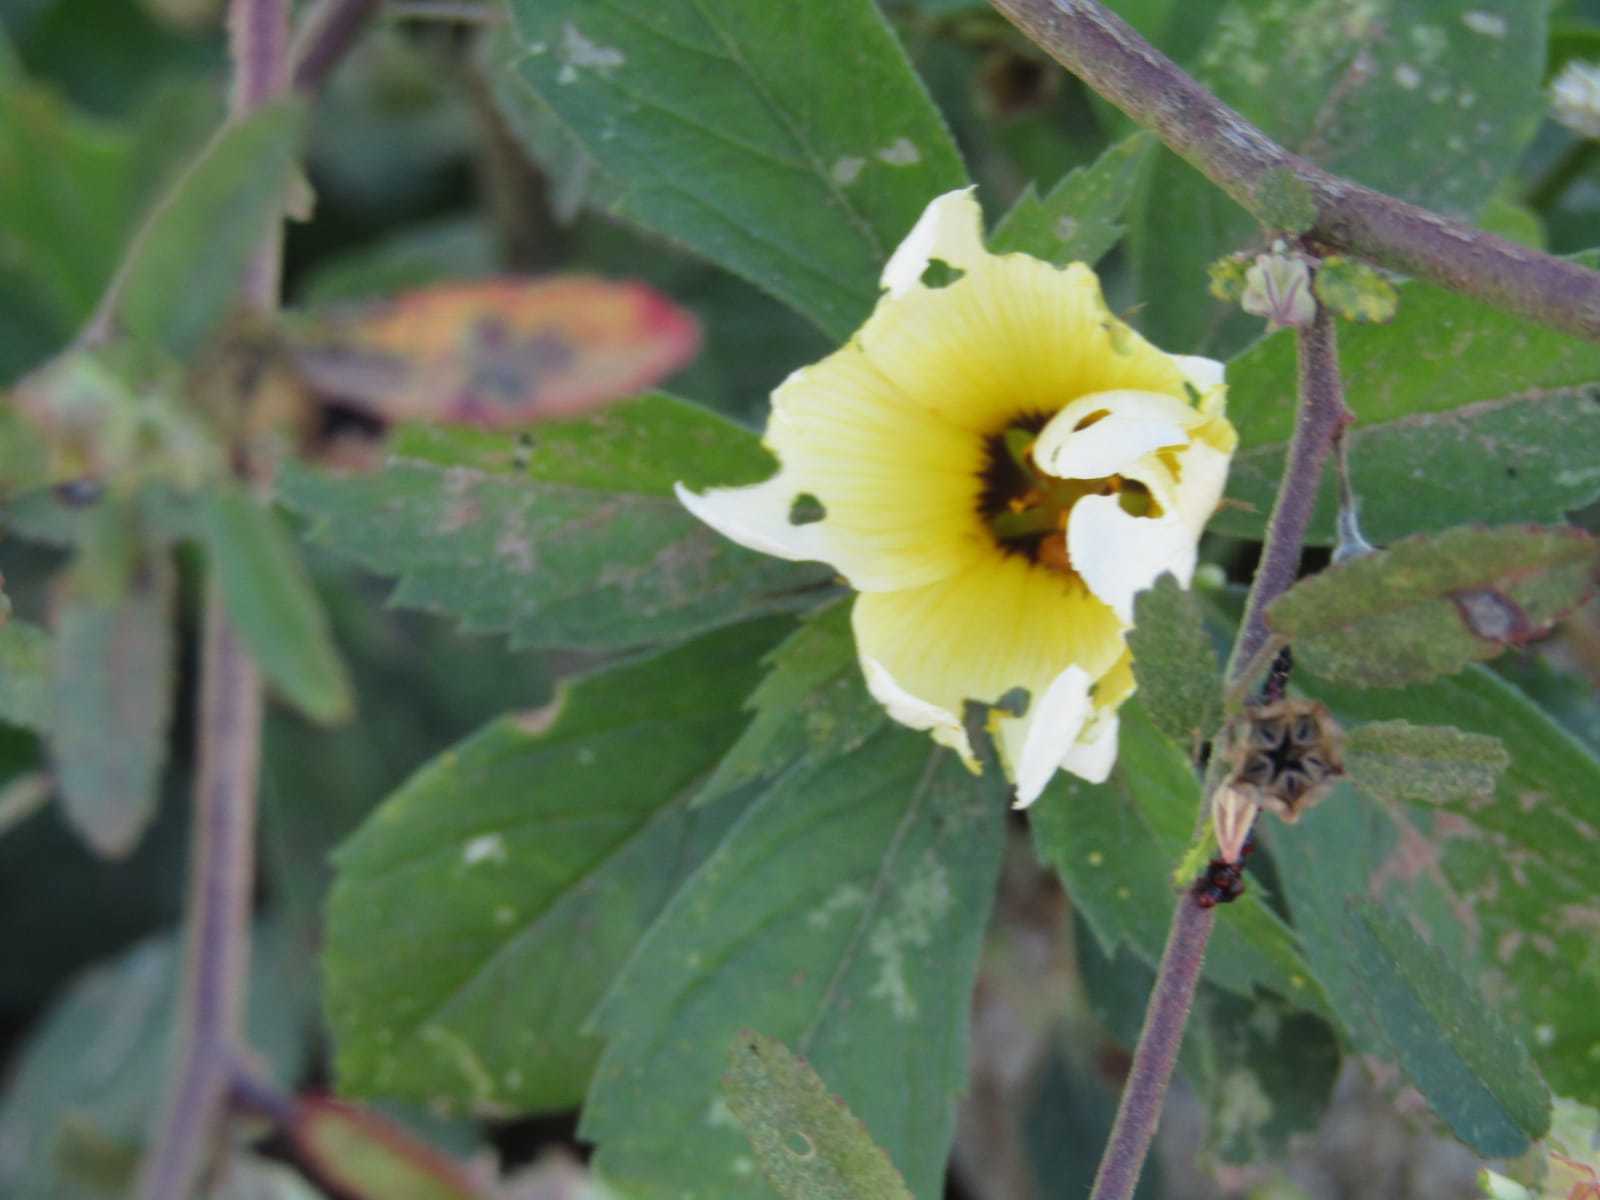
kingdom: Plantae
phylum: Tracheophyta
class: Magnoliopsida
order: Malpighiales
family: Turneraceae
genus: Turnera
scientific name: Turnera subulata
